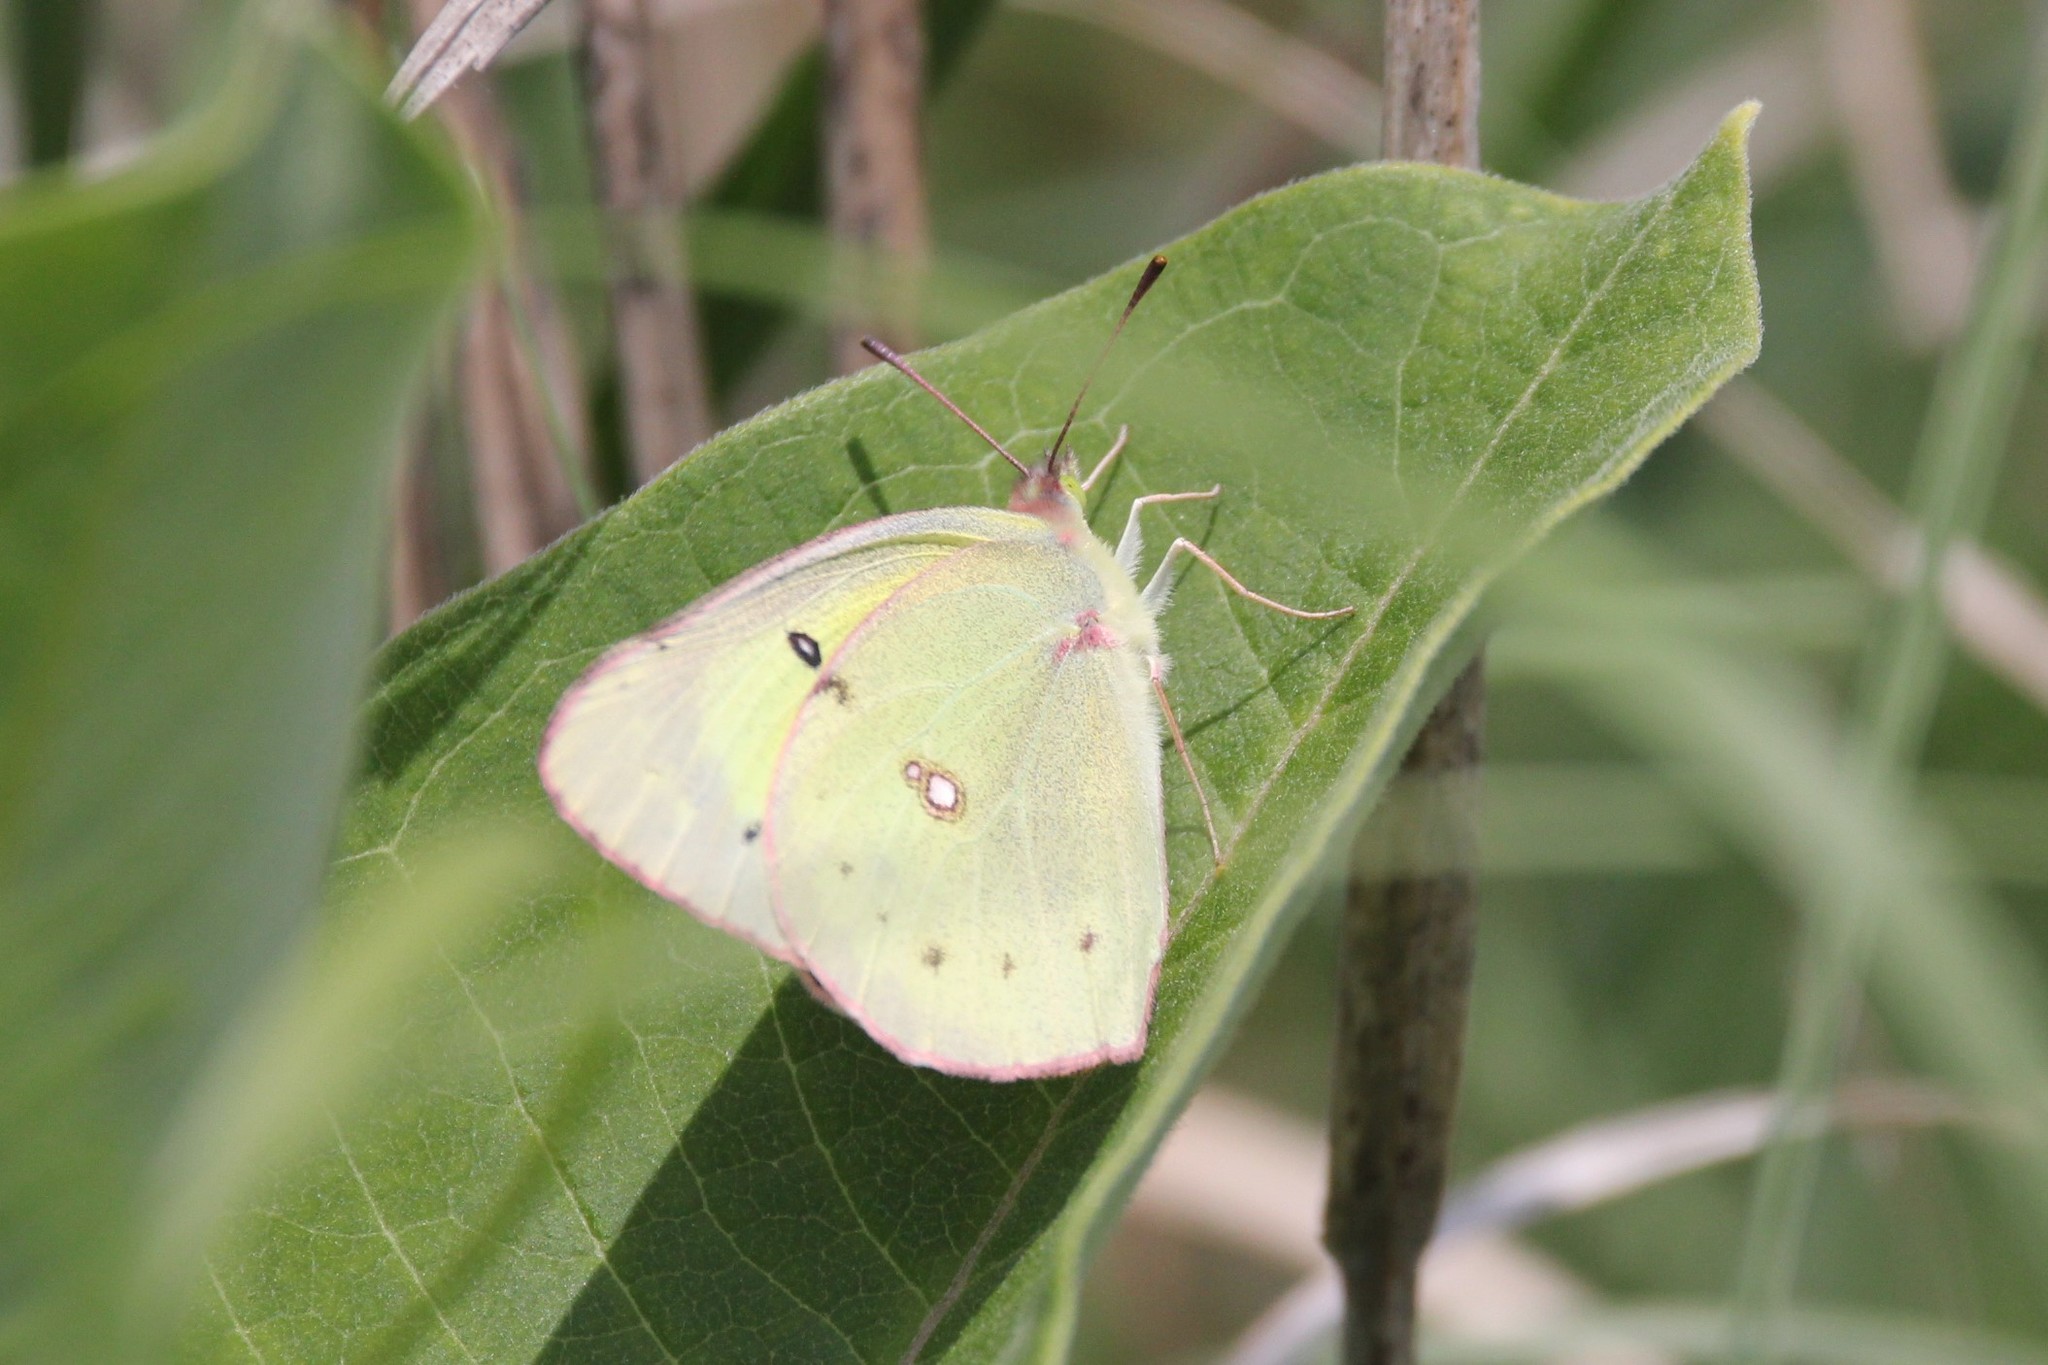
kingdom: Animalia
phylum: Arthropoda
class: Insecta
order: Lepidoptera
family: Pieridae
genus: Colias
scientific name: Colias philodice
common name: Clouded sulphur
